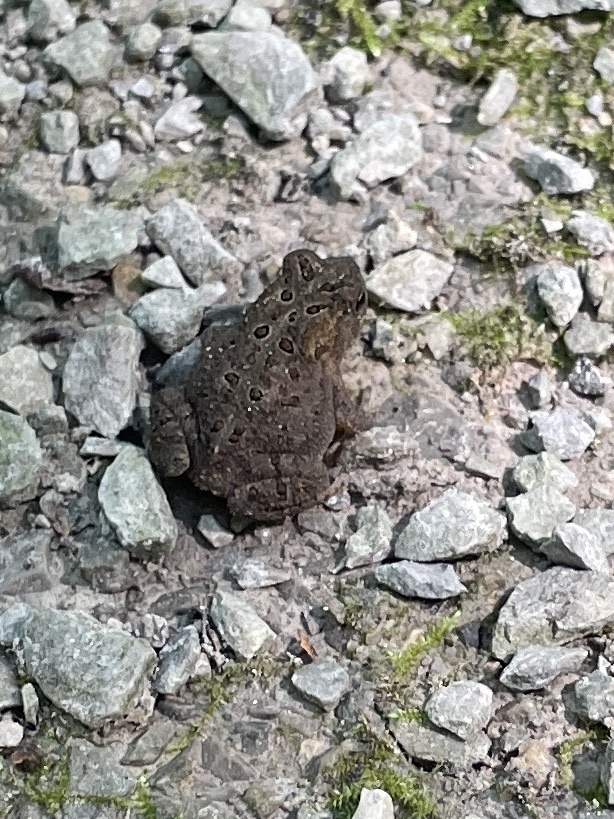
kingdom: Animalia
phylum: Chordata
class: Amphibia
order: Anura
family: Bufonidae
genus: Anaxyrus
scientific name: Anaxyrus americanus
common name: American toad
